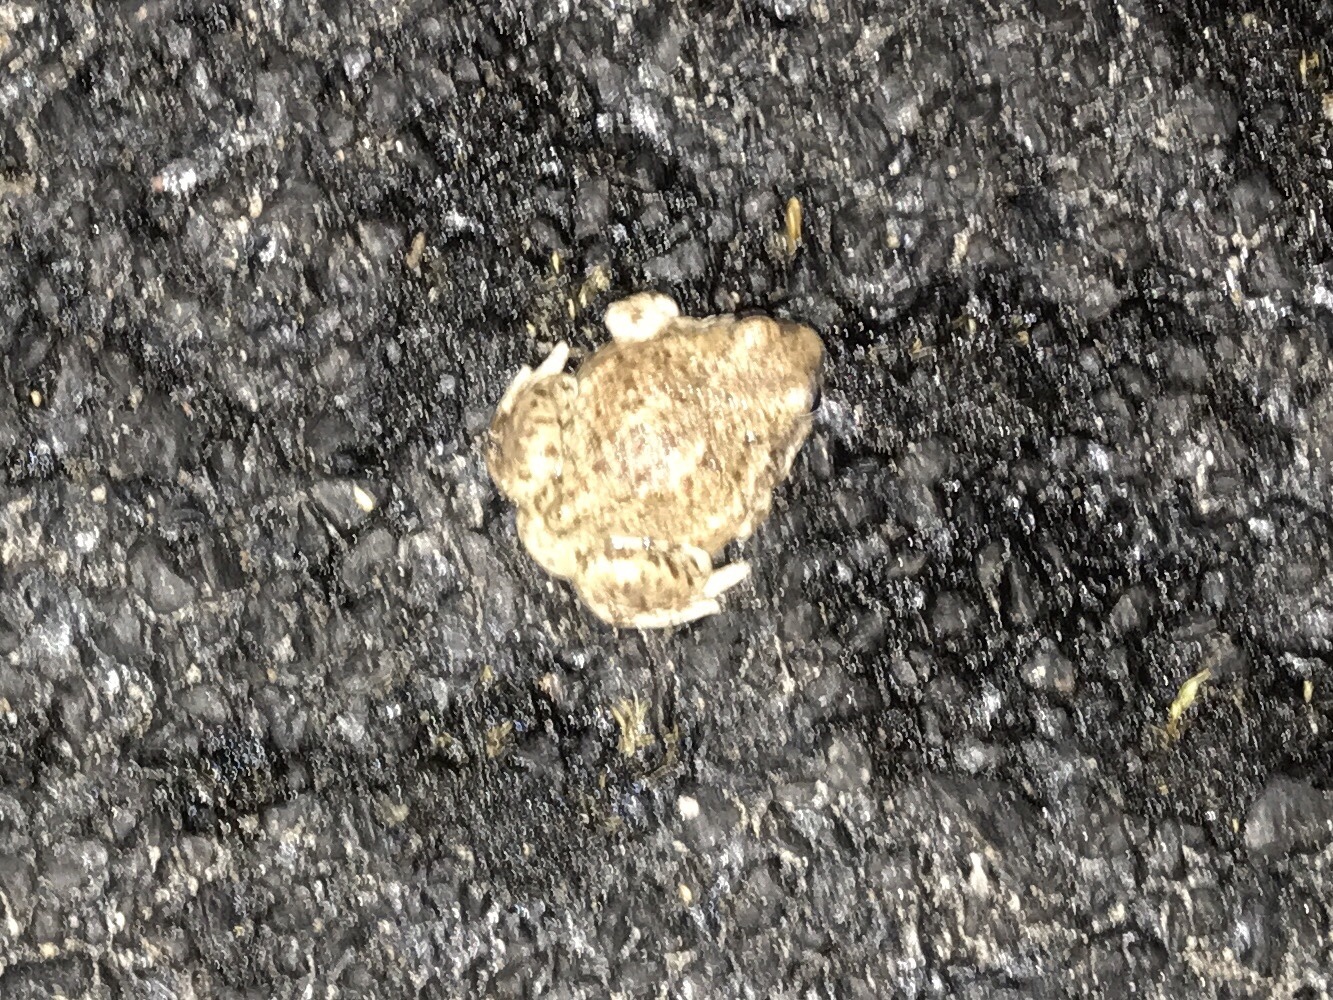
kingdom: Animalia
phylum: Chordata
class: Amphibia
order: Anura
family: Scaphiopodidae
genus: Spea
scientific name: Spea multiplicata
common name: Mexican spadefoot
